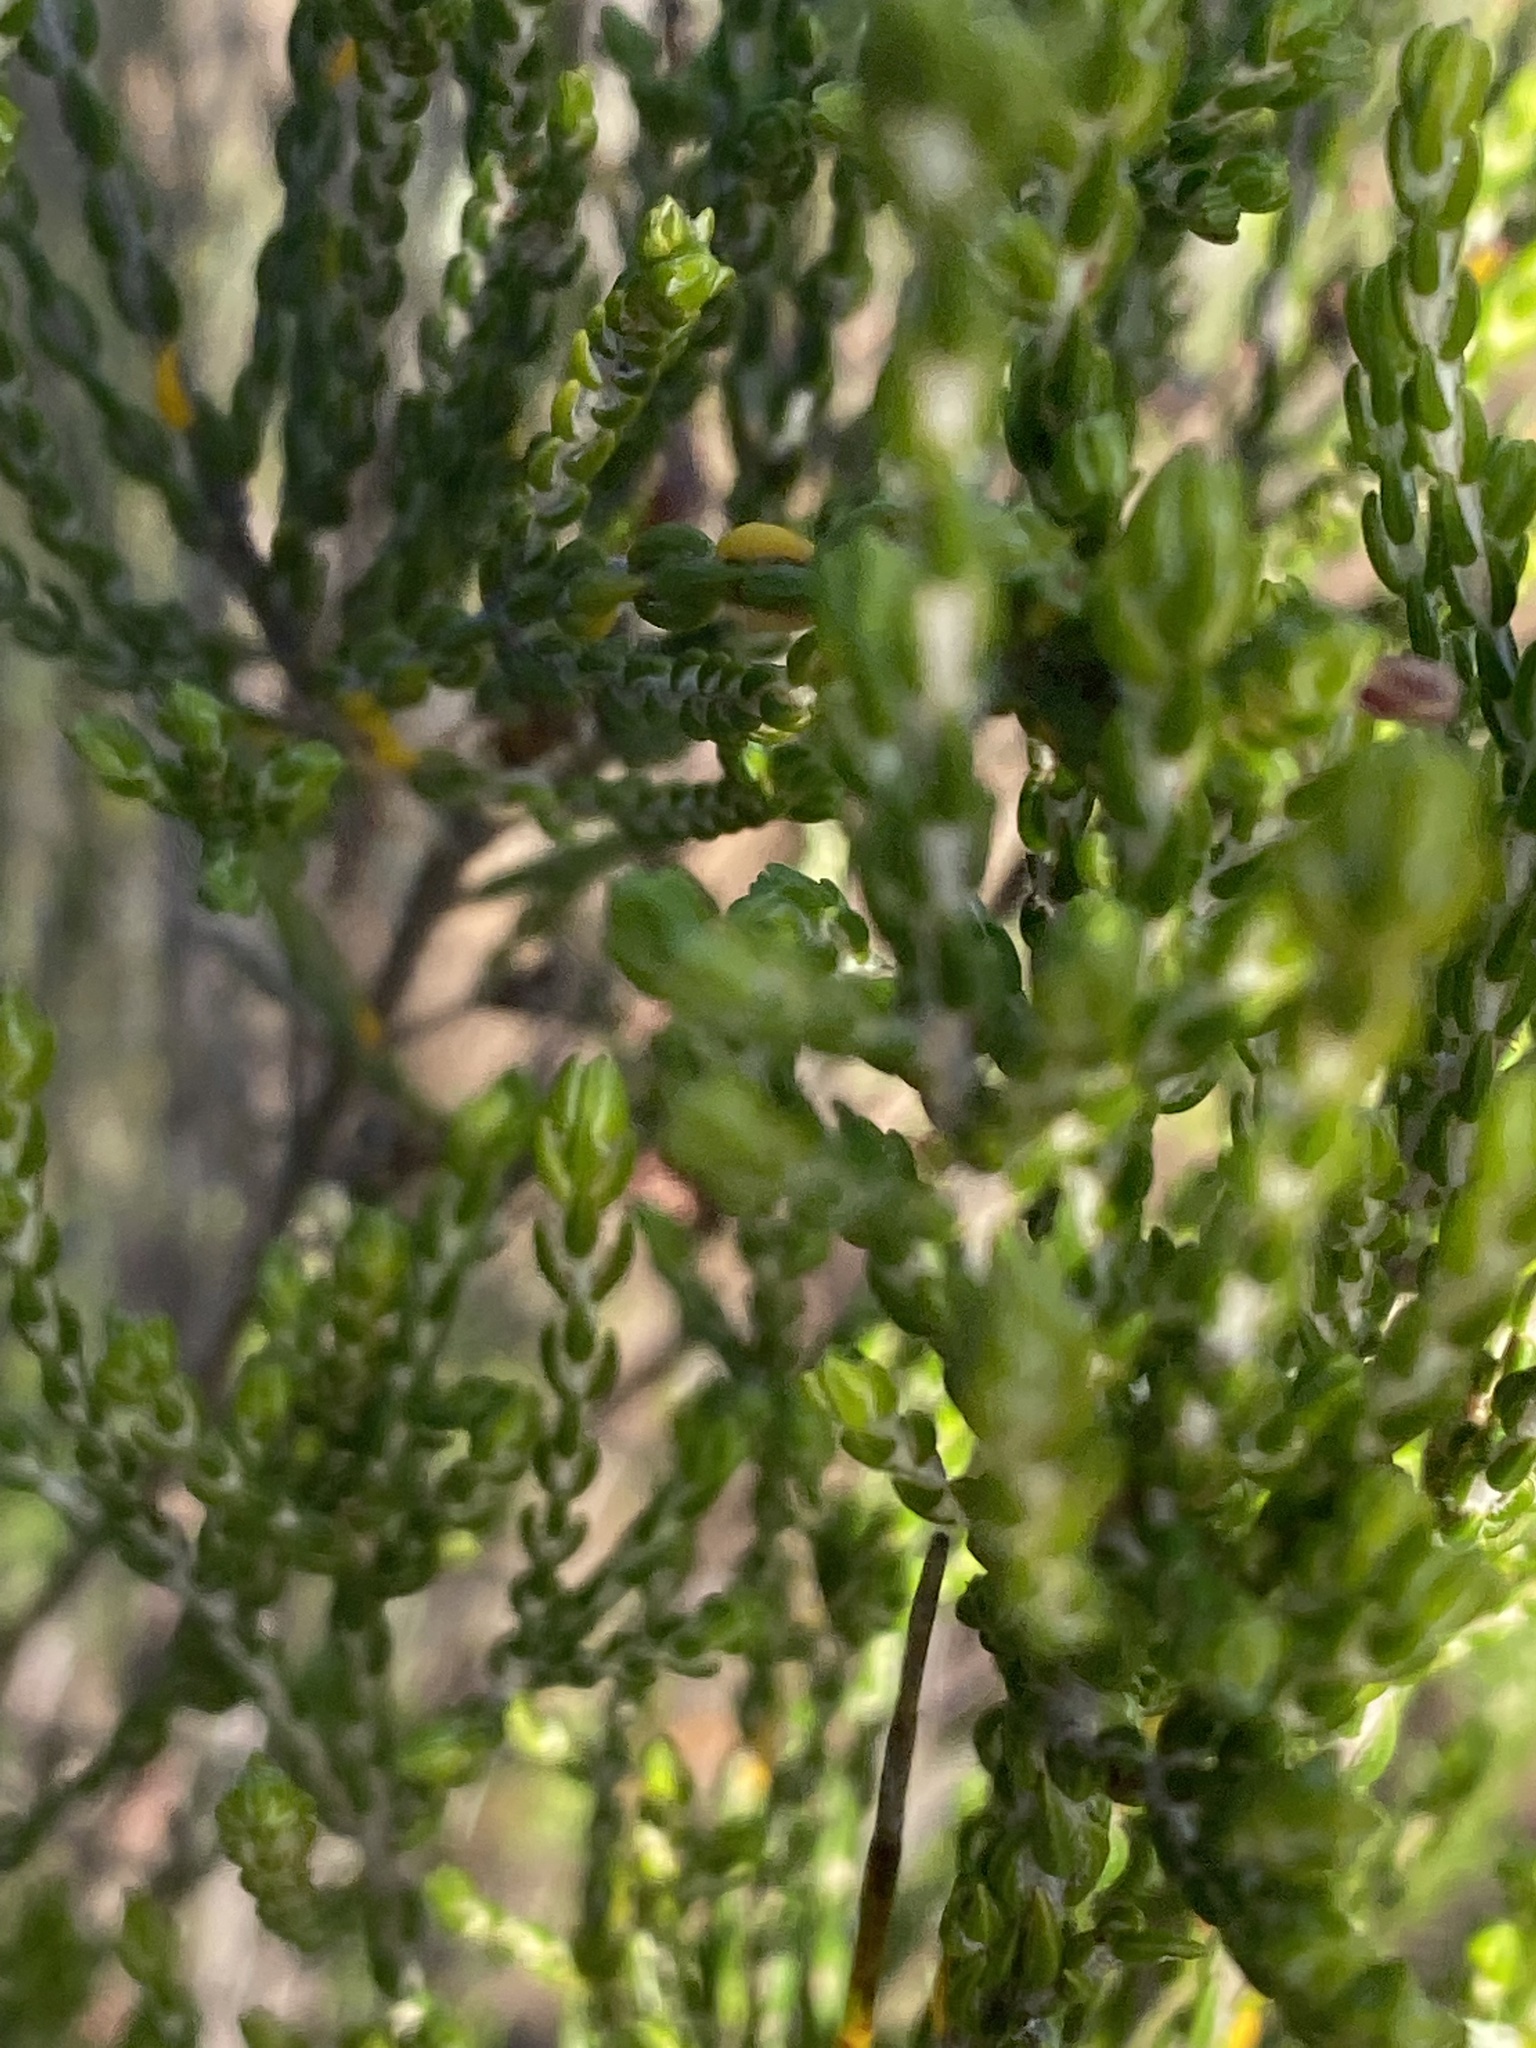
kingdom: Plantae
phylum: Tracheophyta
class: Magnoliopsida
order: Malvales
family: Thymelaeaceae
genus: Passerina
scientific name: Passerina corymbosa
